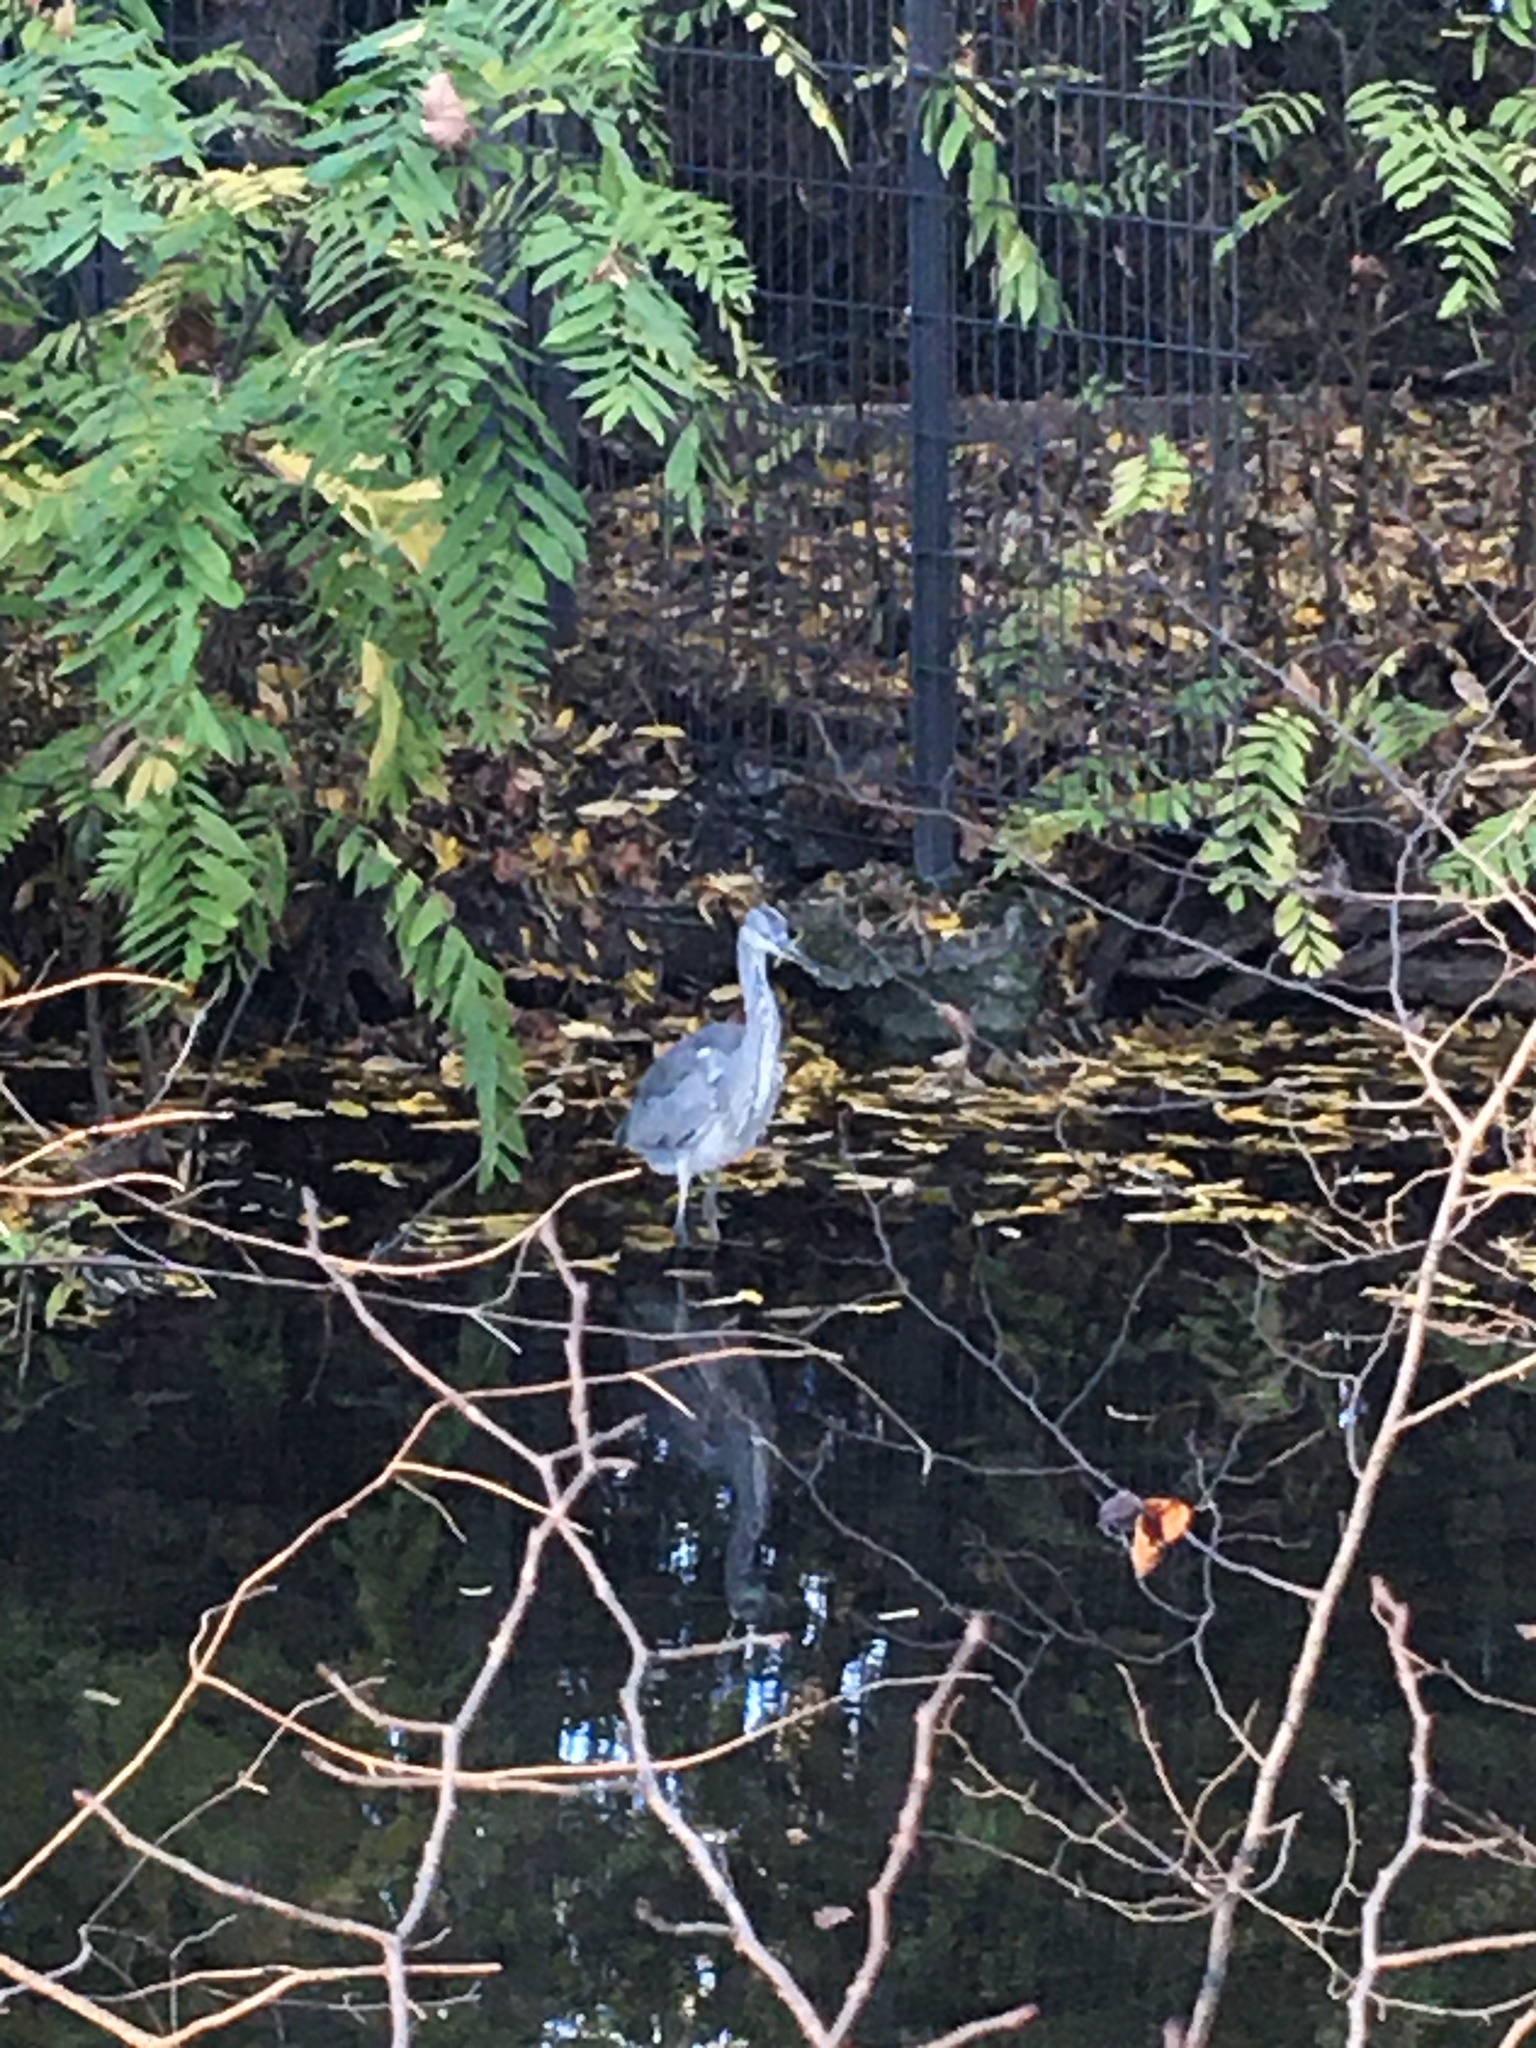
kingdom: Animalia
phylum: Chordata
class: Aves
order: Pelecaniformes
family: Ardeidae
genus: Ardea
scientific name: Ardea cinerea
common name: Grey heron
